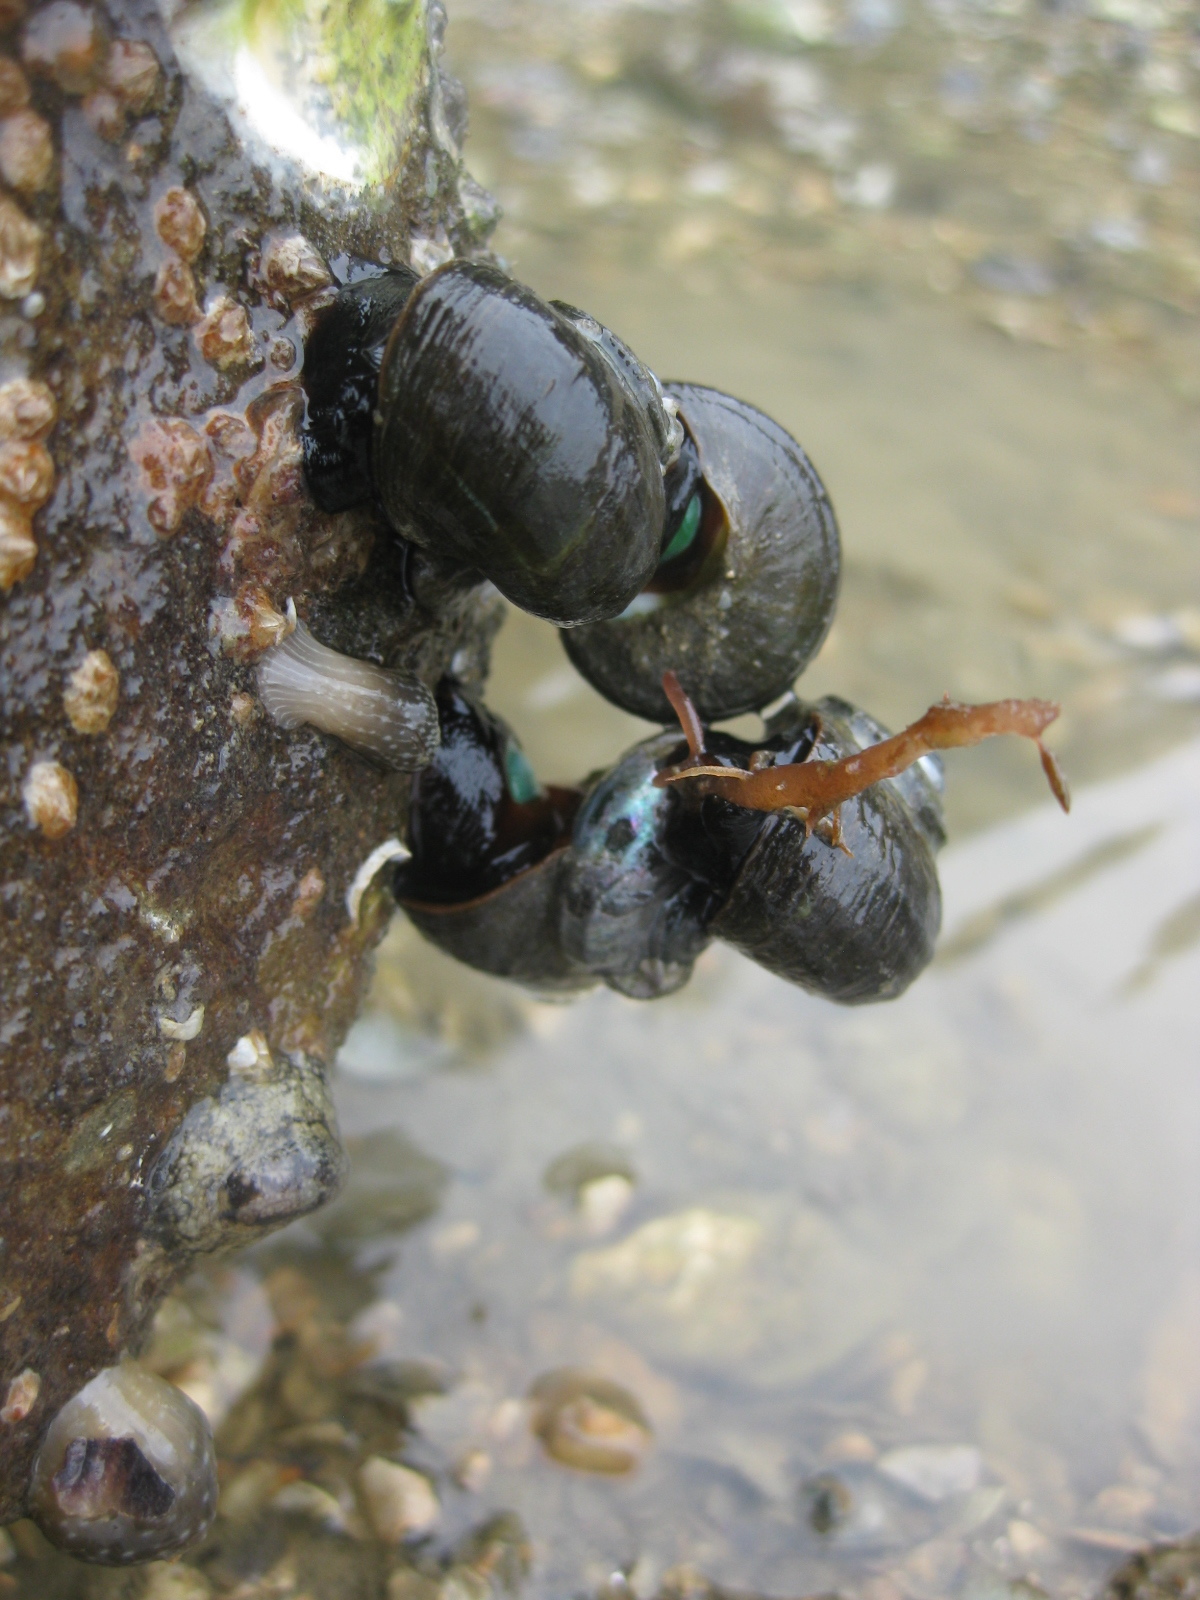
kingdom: Animalia
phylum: Mollusca
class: Gastropoda
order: Trochida
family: Turbinidae
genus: Lunella
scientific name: Lunella smaragda
